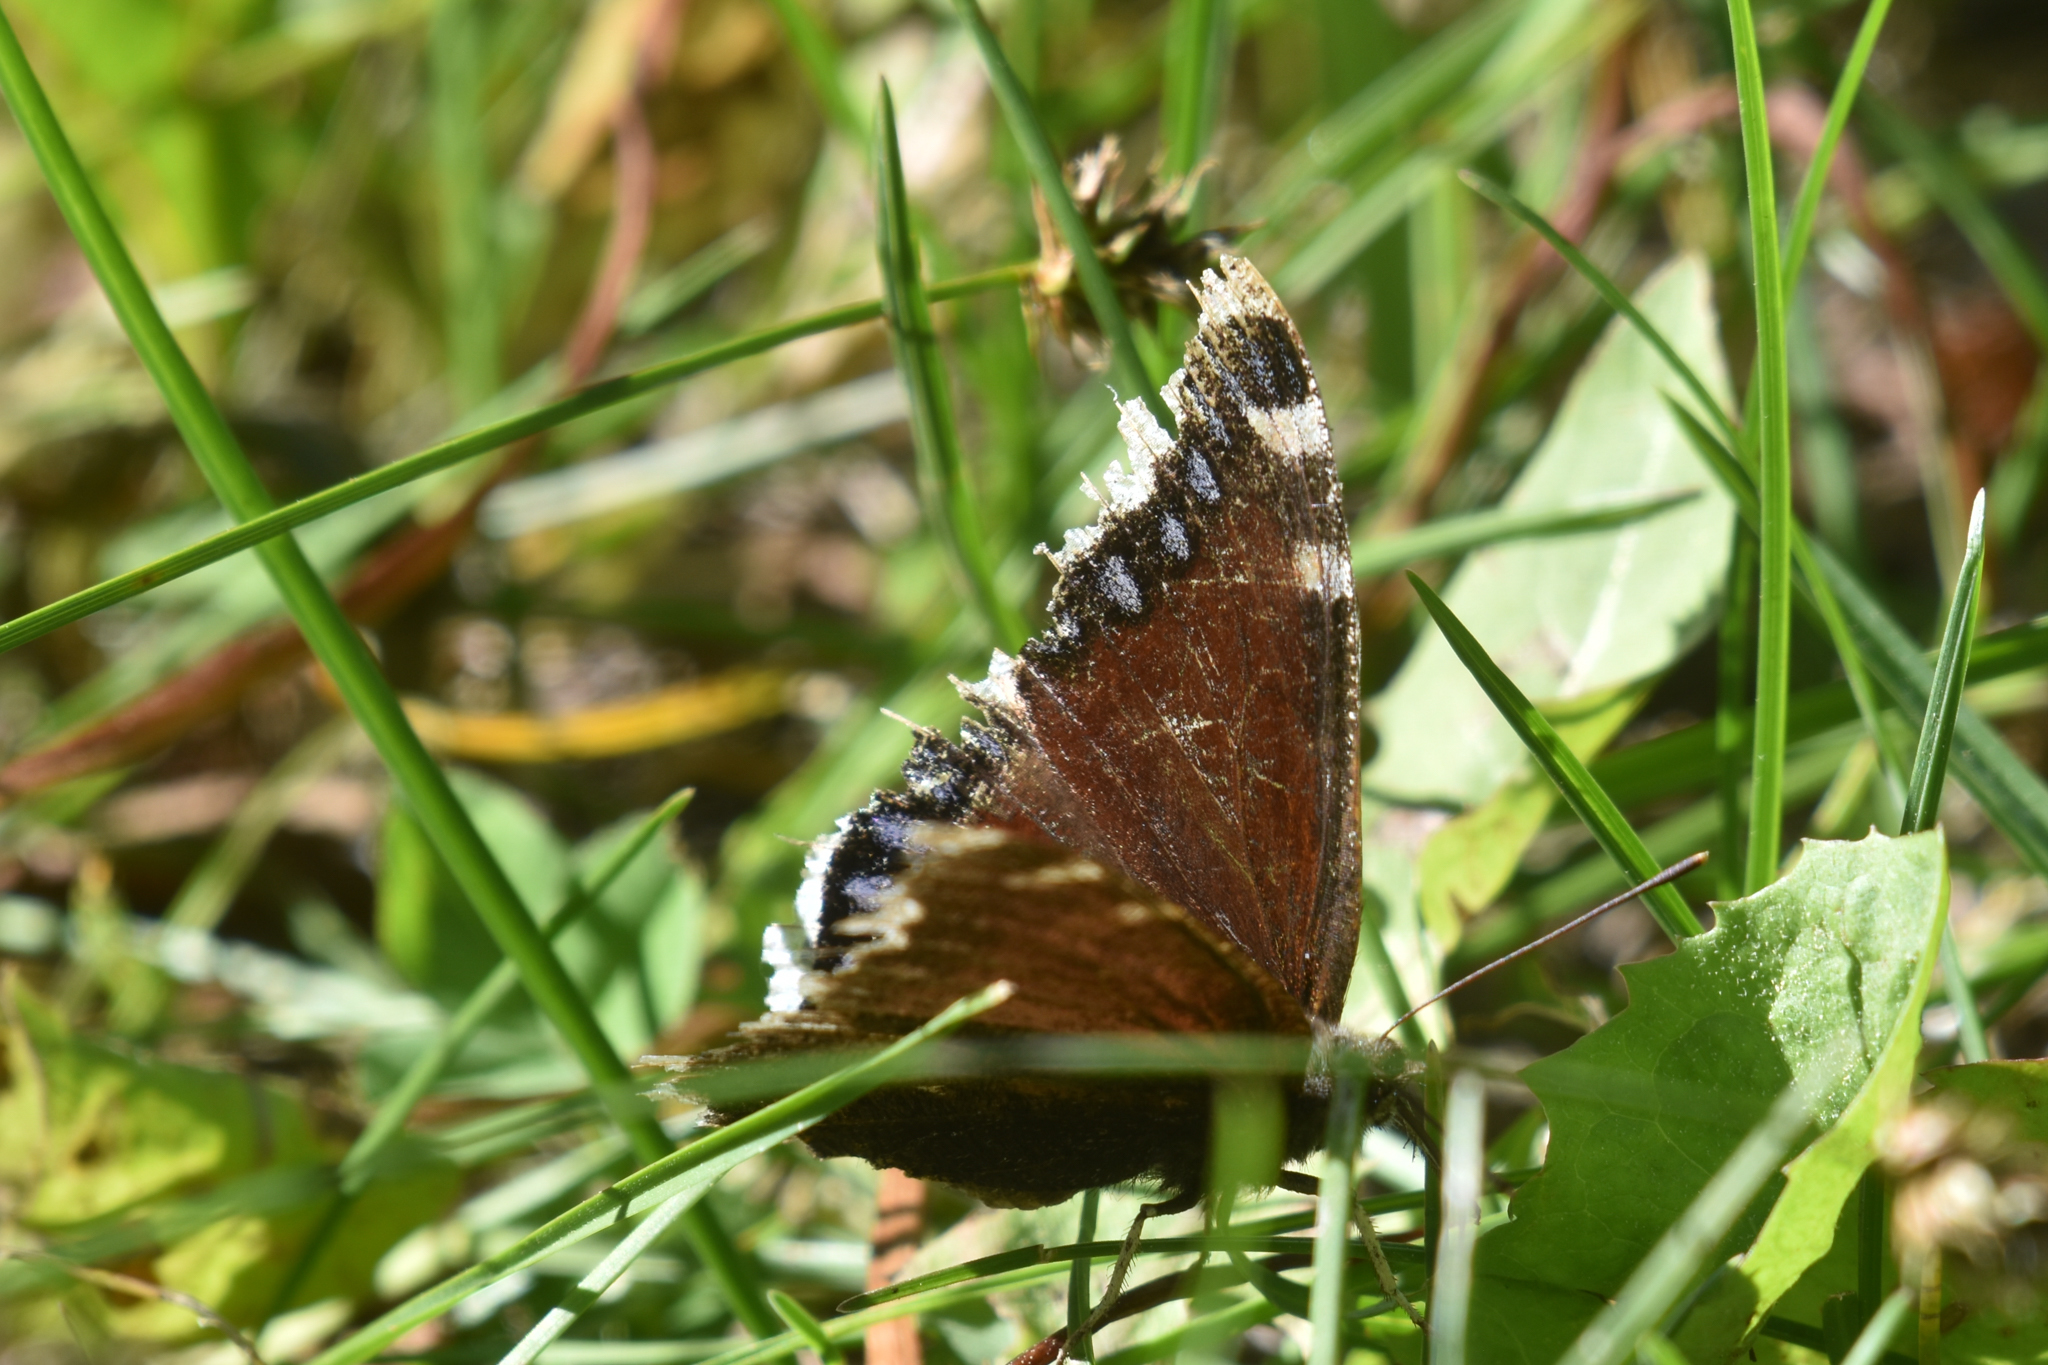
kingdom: Animalia
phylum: Arthropoda
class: Insecta
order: Lepidoptera
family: Nymphalidae
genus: Nymphalis
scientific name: Nymphalis antiopa
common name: Camberwell beauty
